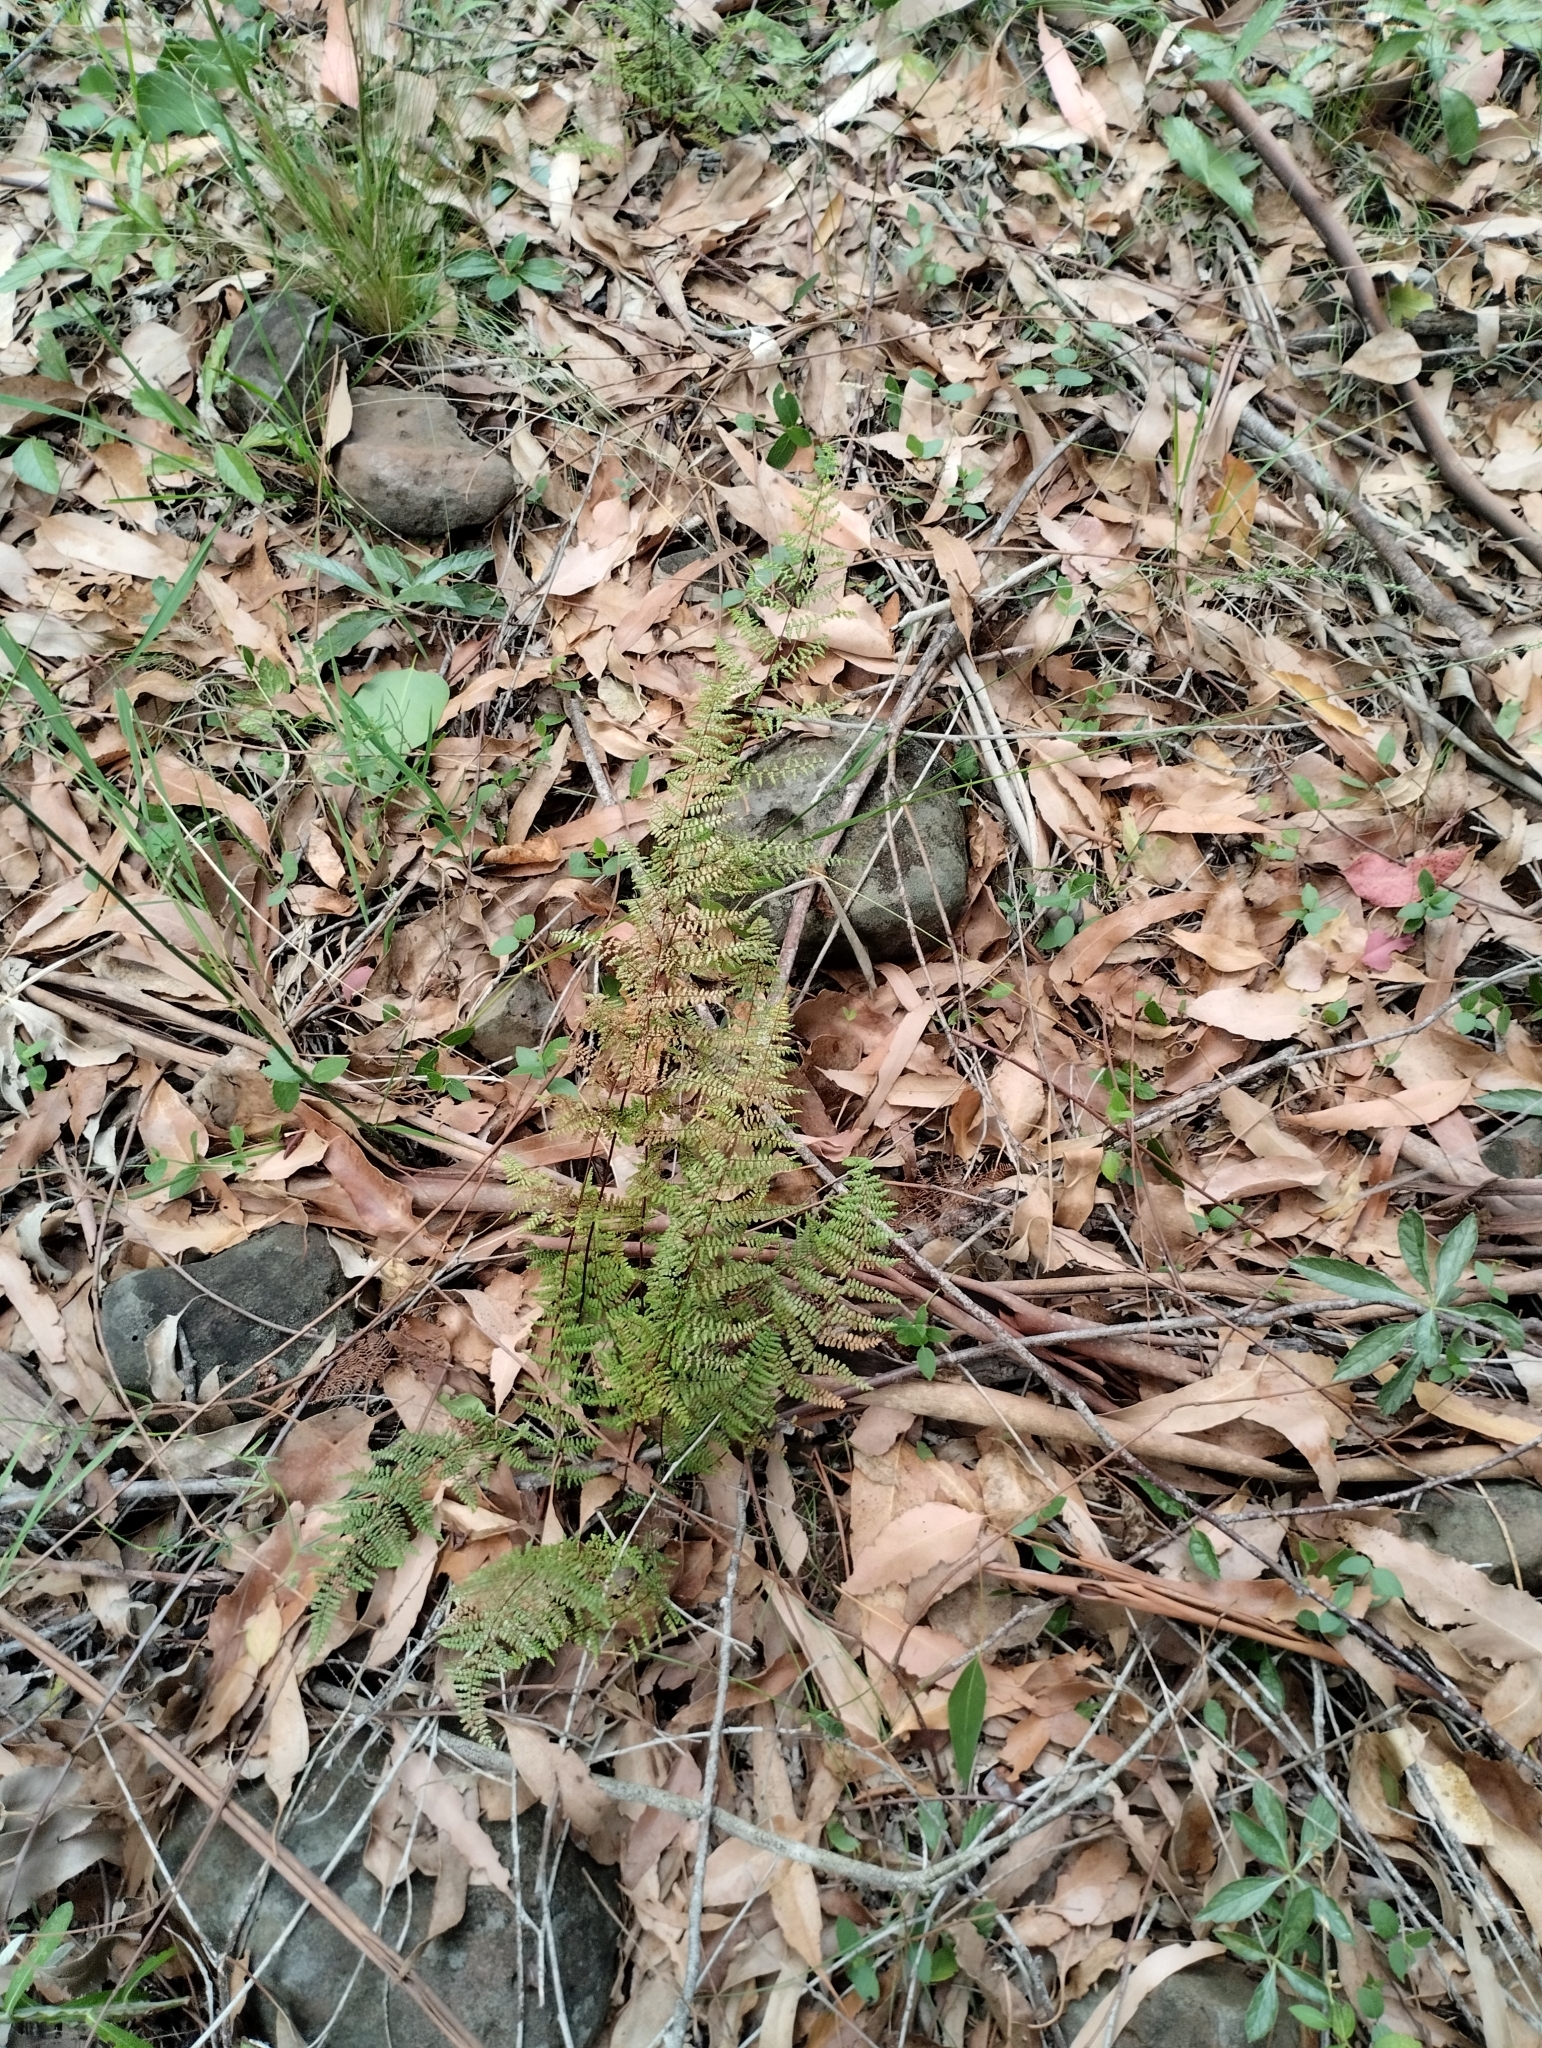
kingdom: Plantae
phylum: Tracheophyta
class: Polypodiopsida
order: Polypodiales
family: Pteridaceae
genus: Adiantopsis
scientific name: Adiantopsis chlorophylla
